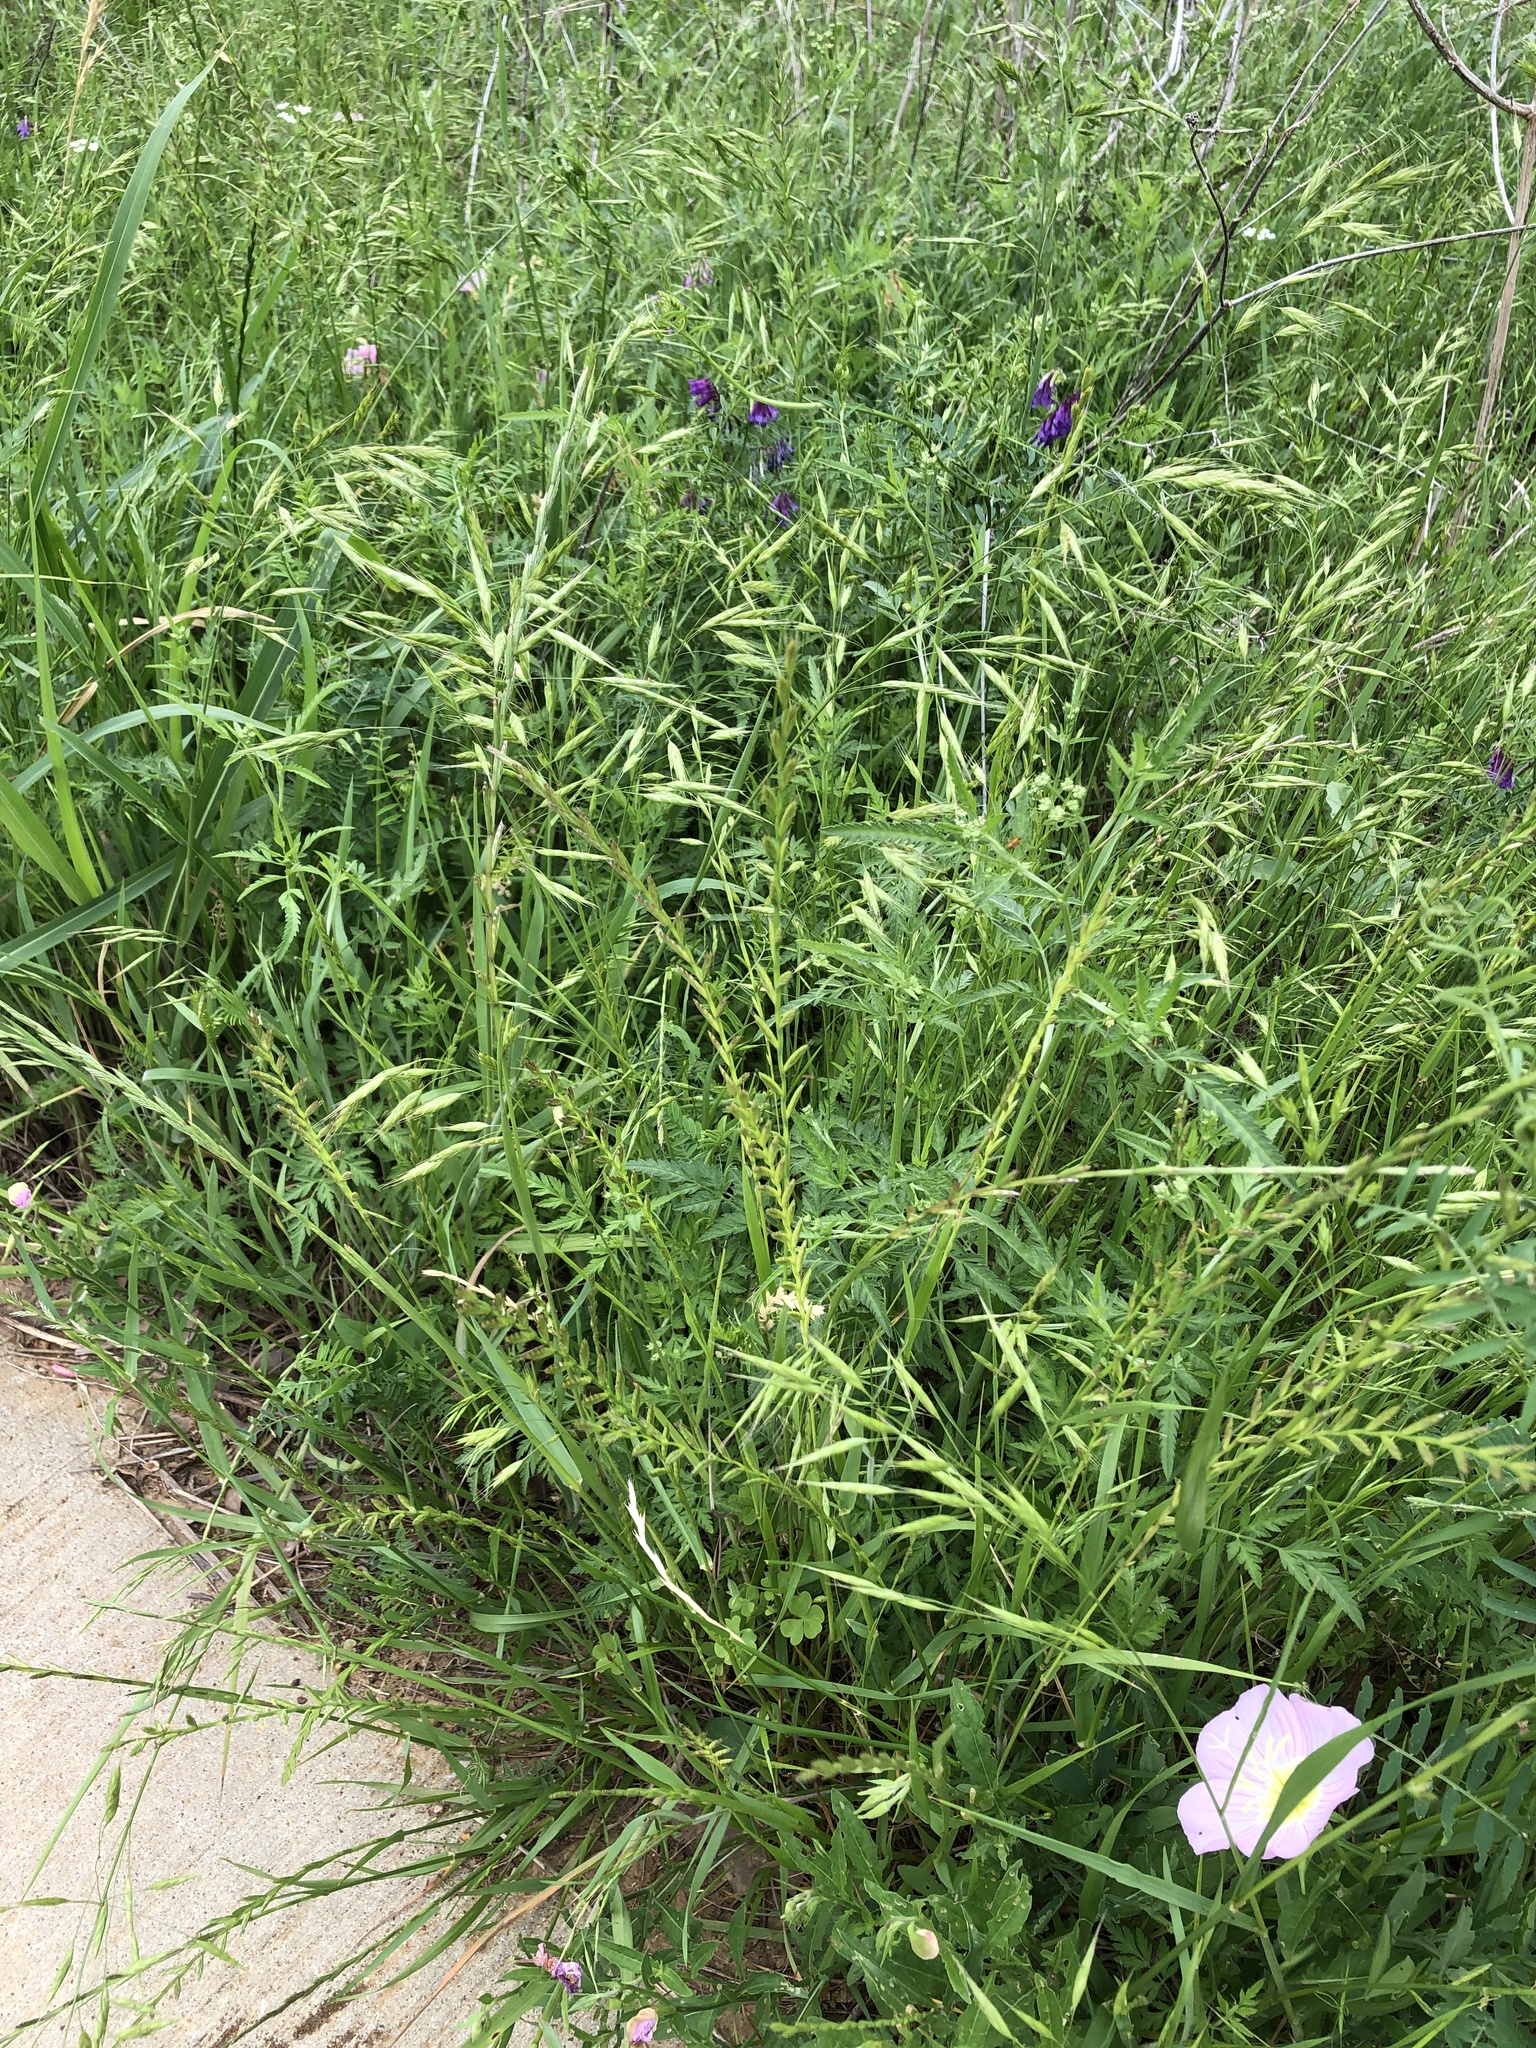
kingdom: Plantae
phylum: Tracheophyta
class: Liliopsida
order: Poales
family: Poaceae
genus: Lolium
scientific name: Lolium perenne
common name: Perennial ryegrass
